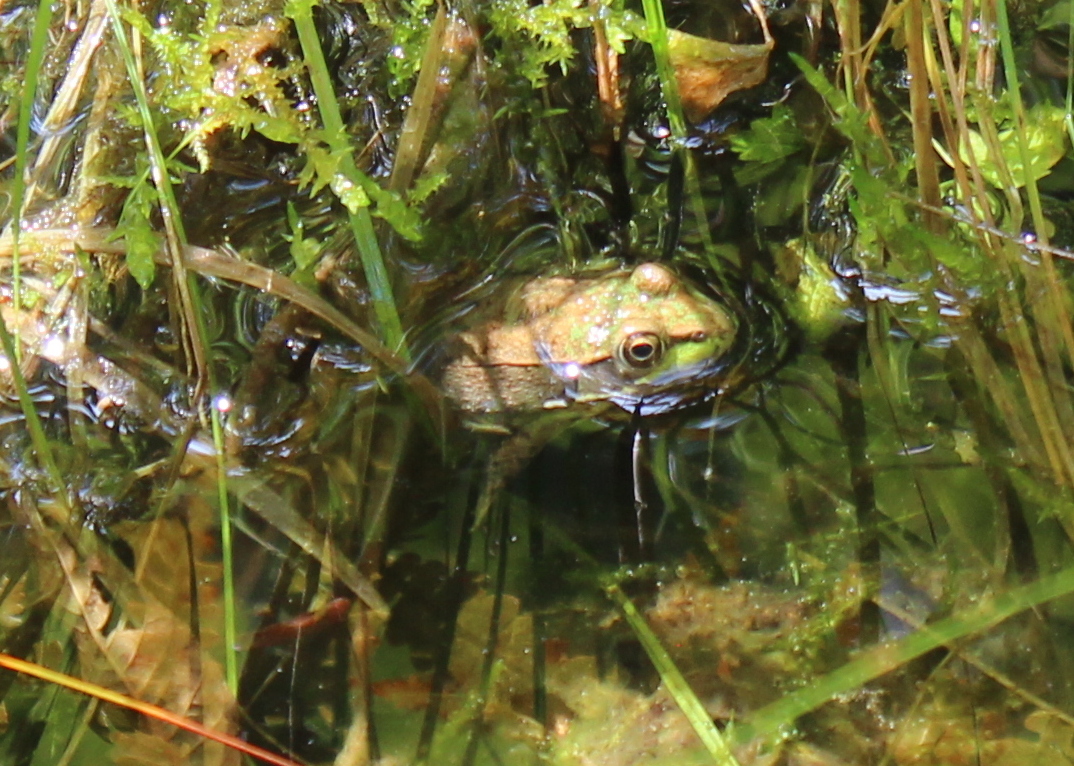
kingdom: Animalia
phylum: Chordata
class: Amphibia
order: Anura
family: Ranidae
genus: Lithobates
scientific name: Lithobates clamitans
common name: Green frog
